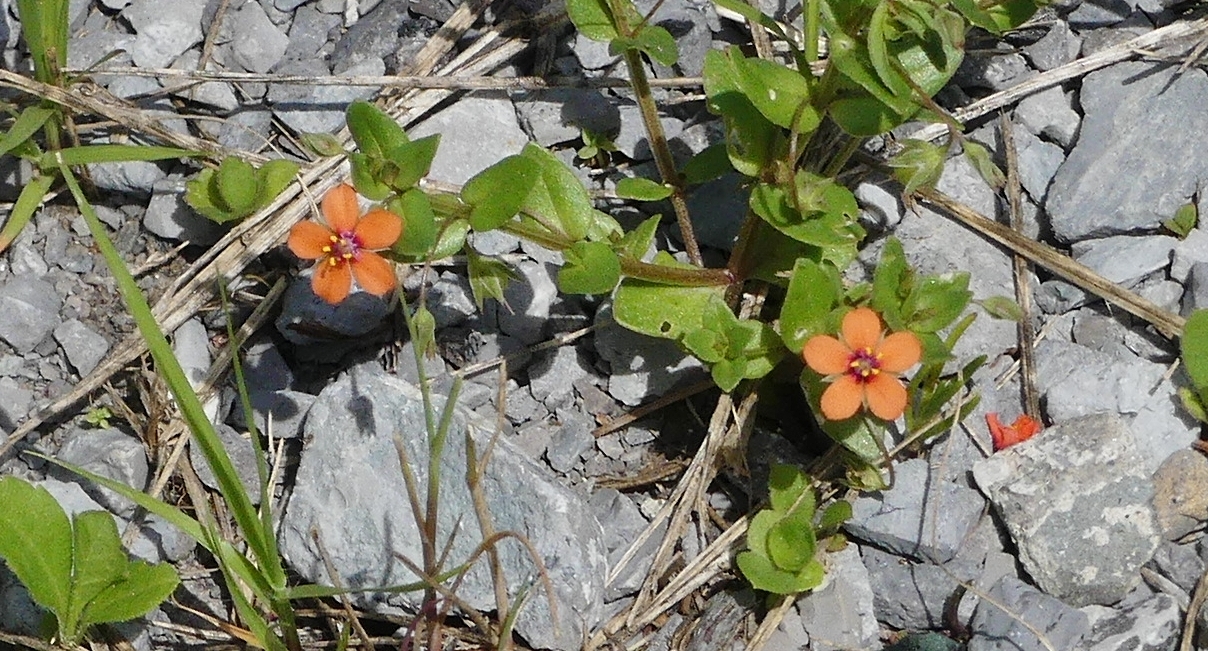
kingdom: Plantae
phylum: Tracheophyta
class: Magnoliopsida
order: Ericales
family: Primulaceae
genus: Lysimachia
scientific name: Lysimachia arvensis
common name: Scarlet pimpernel
